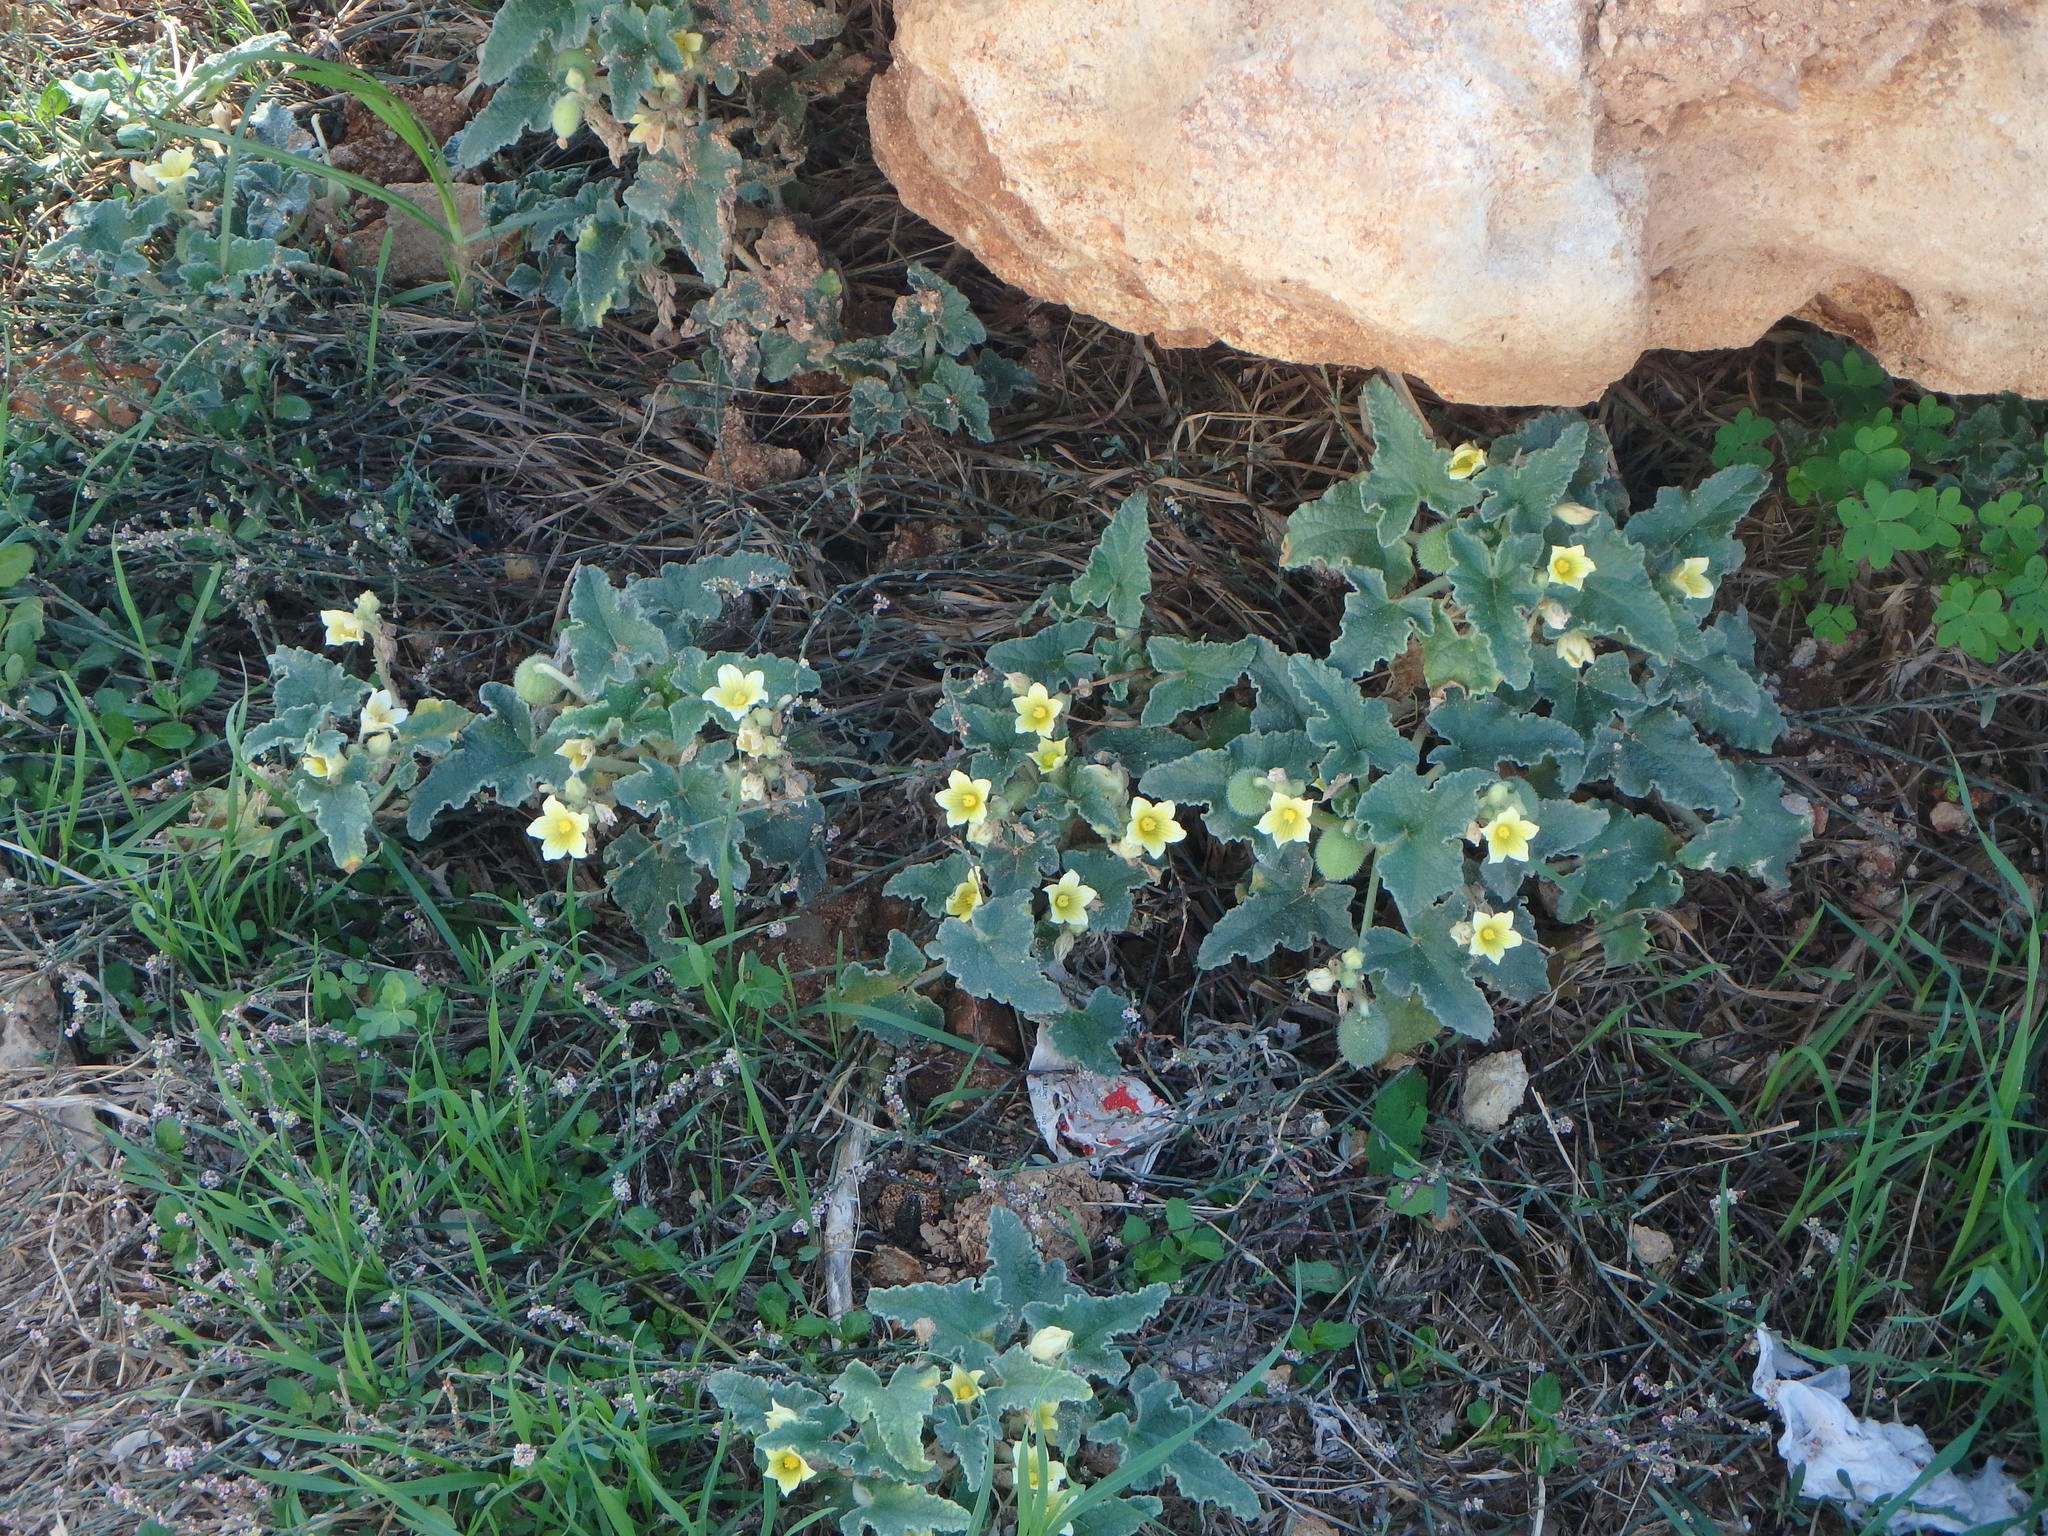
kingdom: Plantae
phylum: Tracheophyta
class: Magnoliopsida
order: Cucurbitales
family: Cucurbitaceae
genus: Ecballium
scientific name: Ecballium elaterium
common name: Squirting cucumber
